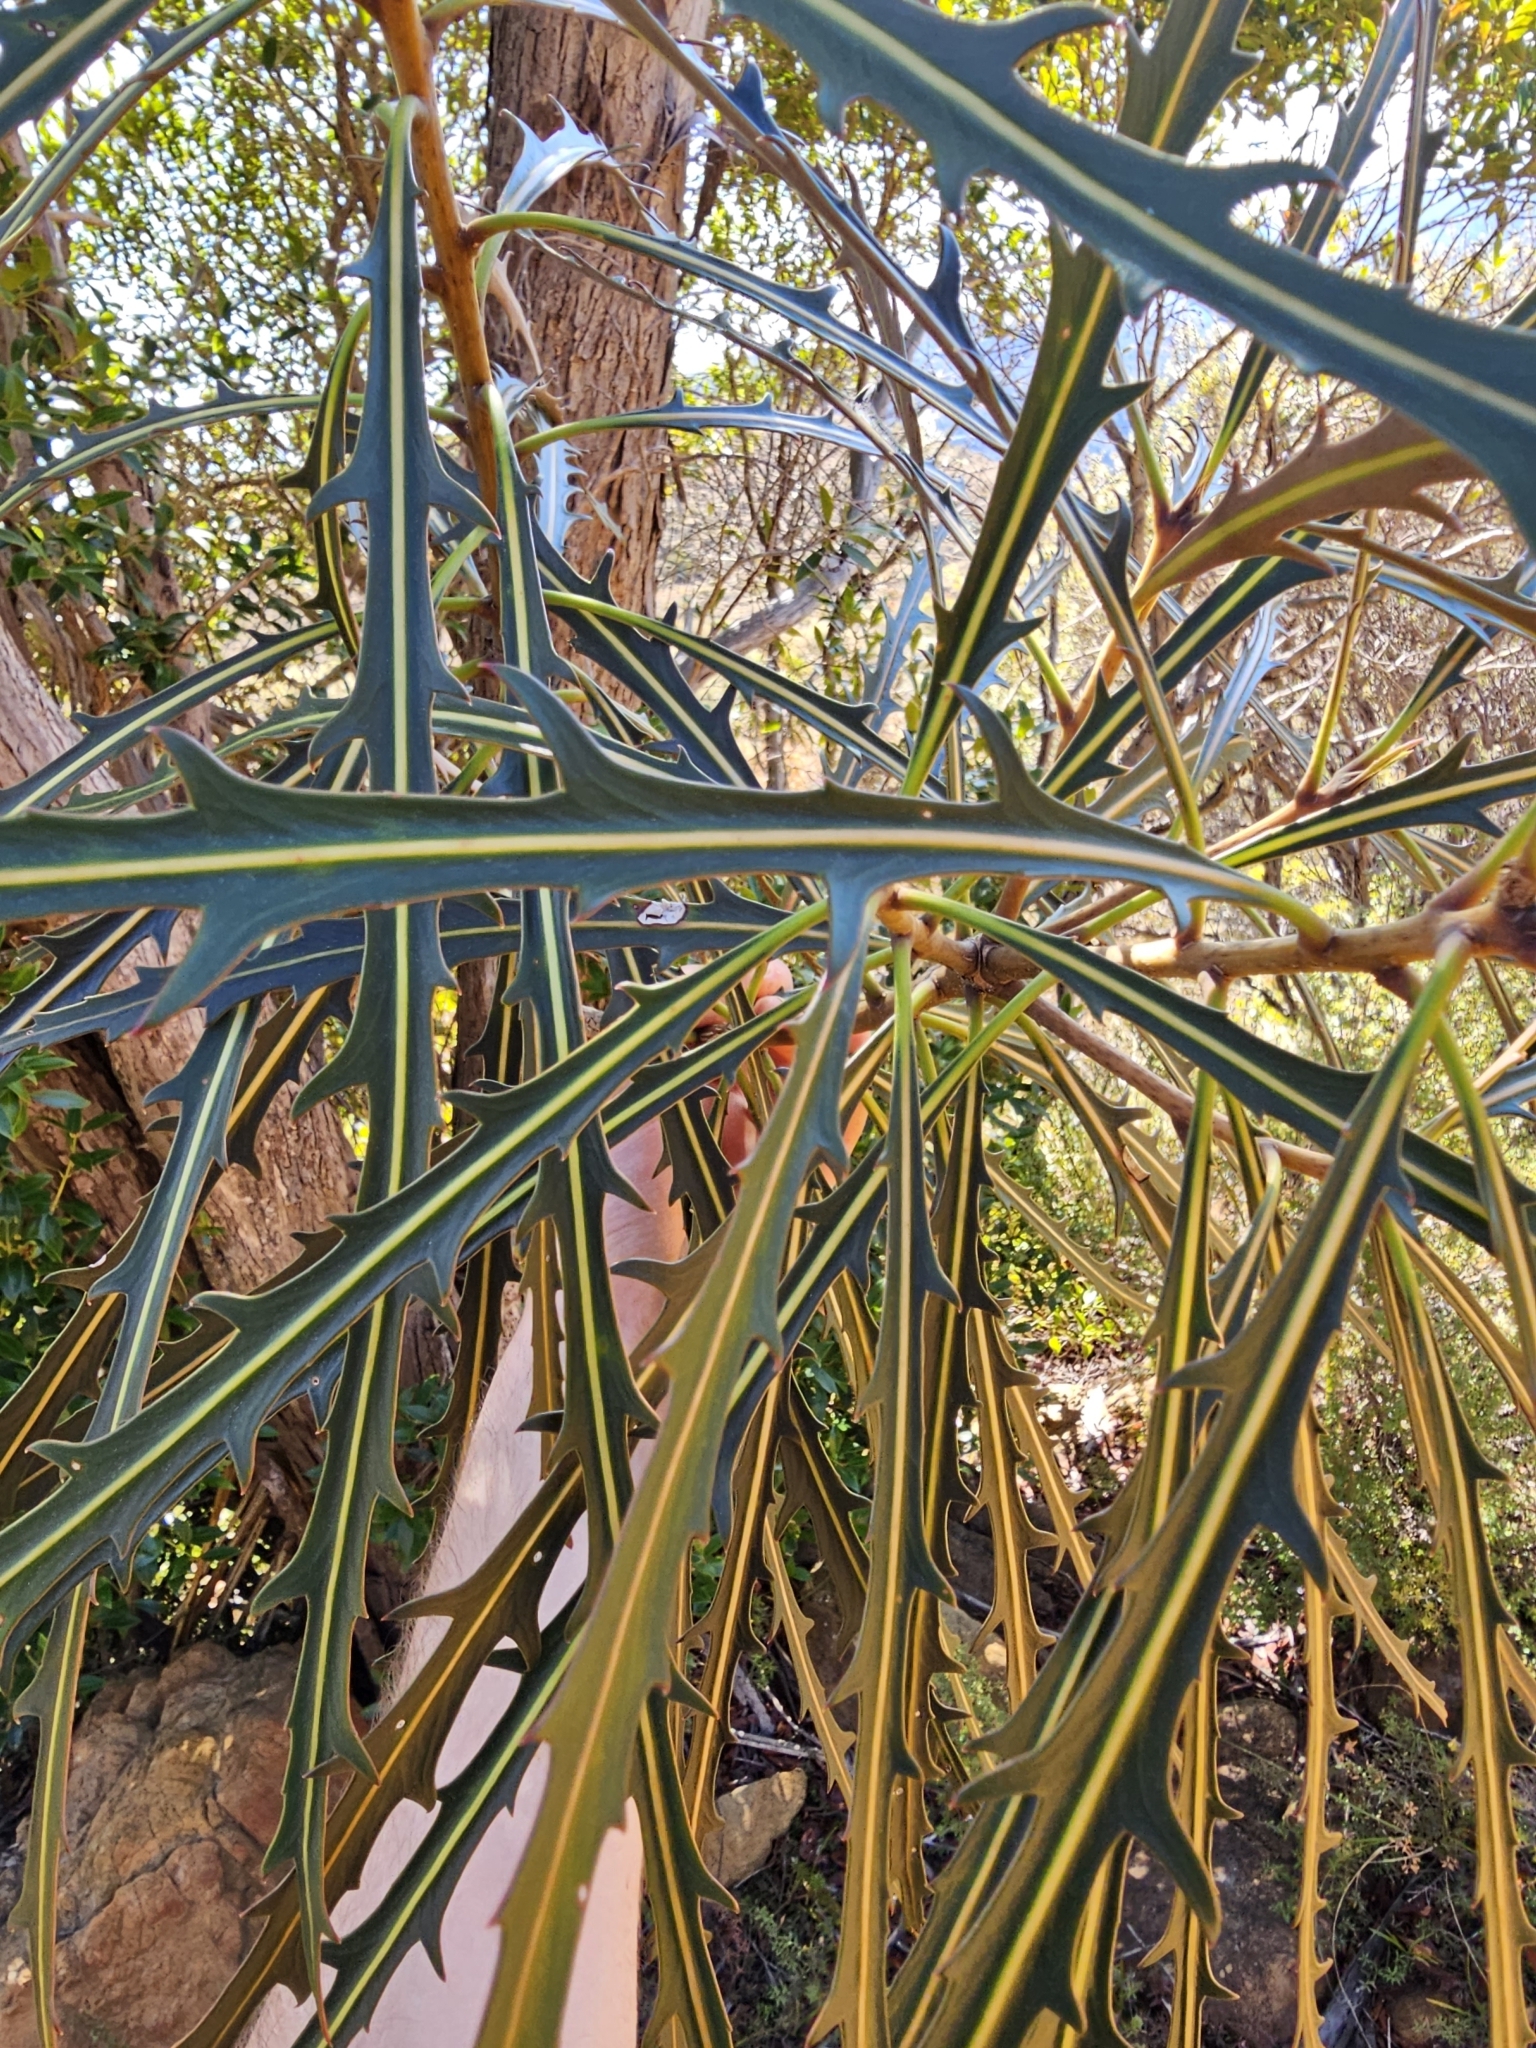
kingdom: Plantae
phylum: Tracheophyta
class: Magnoliopsida
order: Apiales
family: Araliaceae
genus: Pseudopanax
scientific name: Pseudopanax crassifolius
